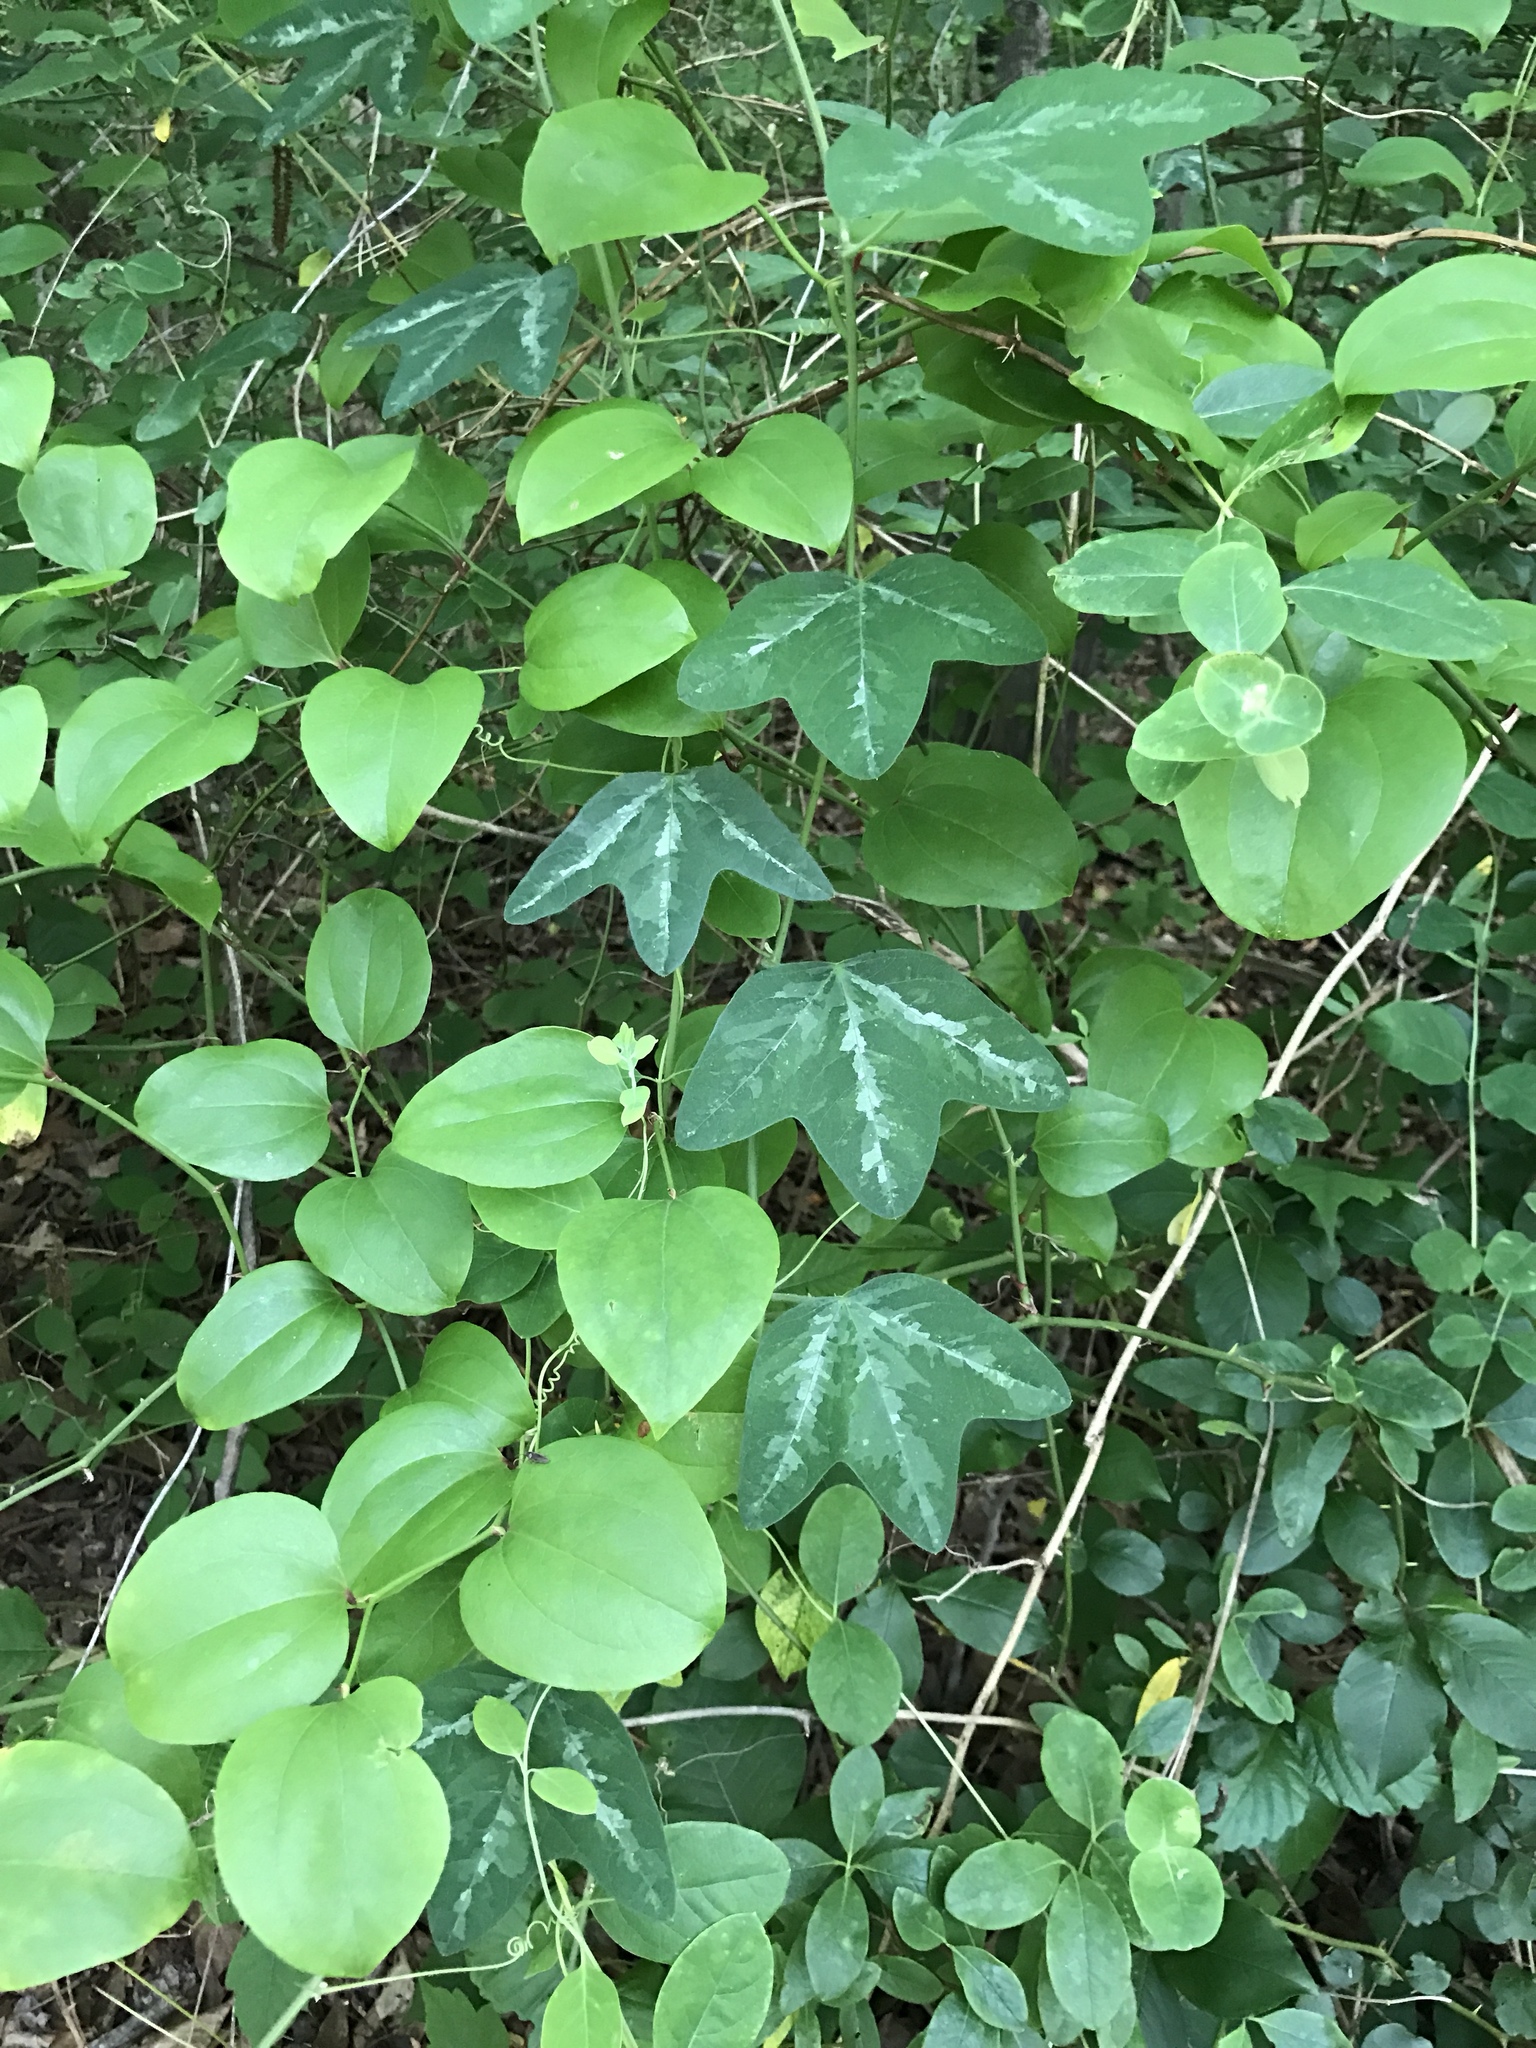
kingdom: Plantae
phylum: Tracheophyta
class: Magnoliopsida
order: Malpighiales
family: Passifloraceae
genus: Passiflora
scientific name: Passiflora lutea
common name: Yellow passionflower
